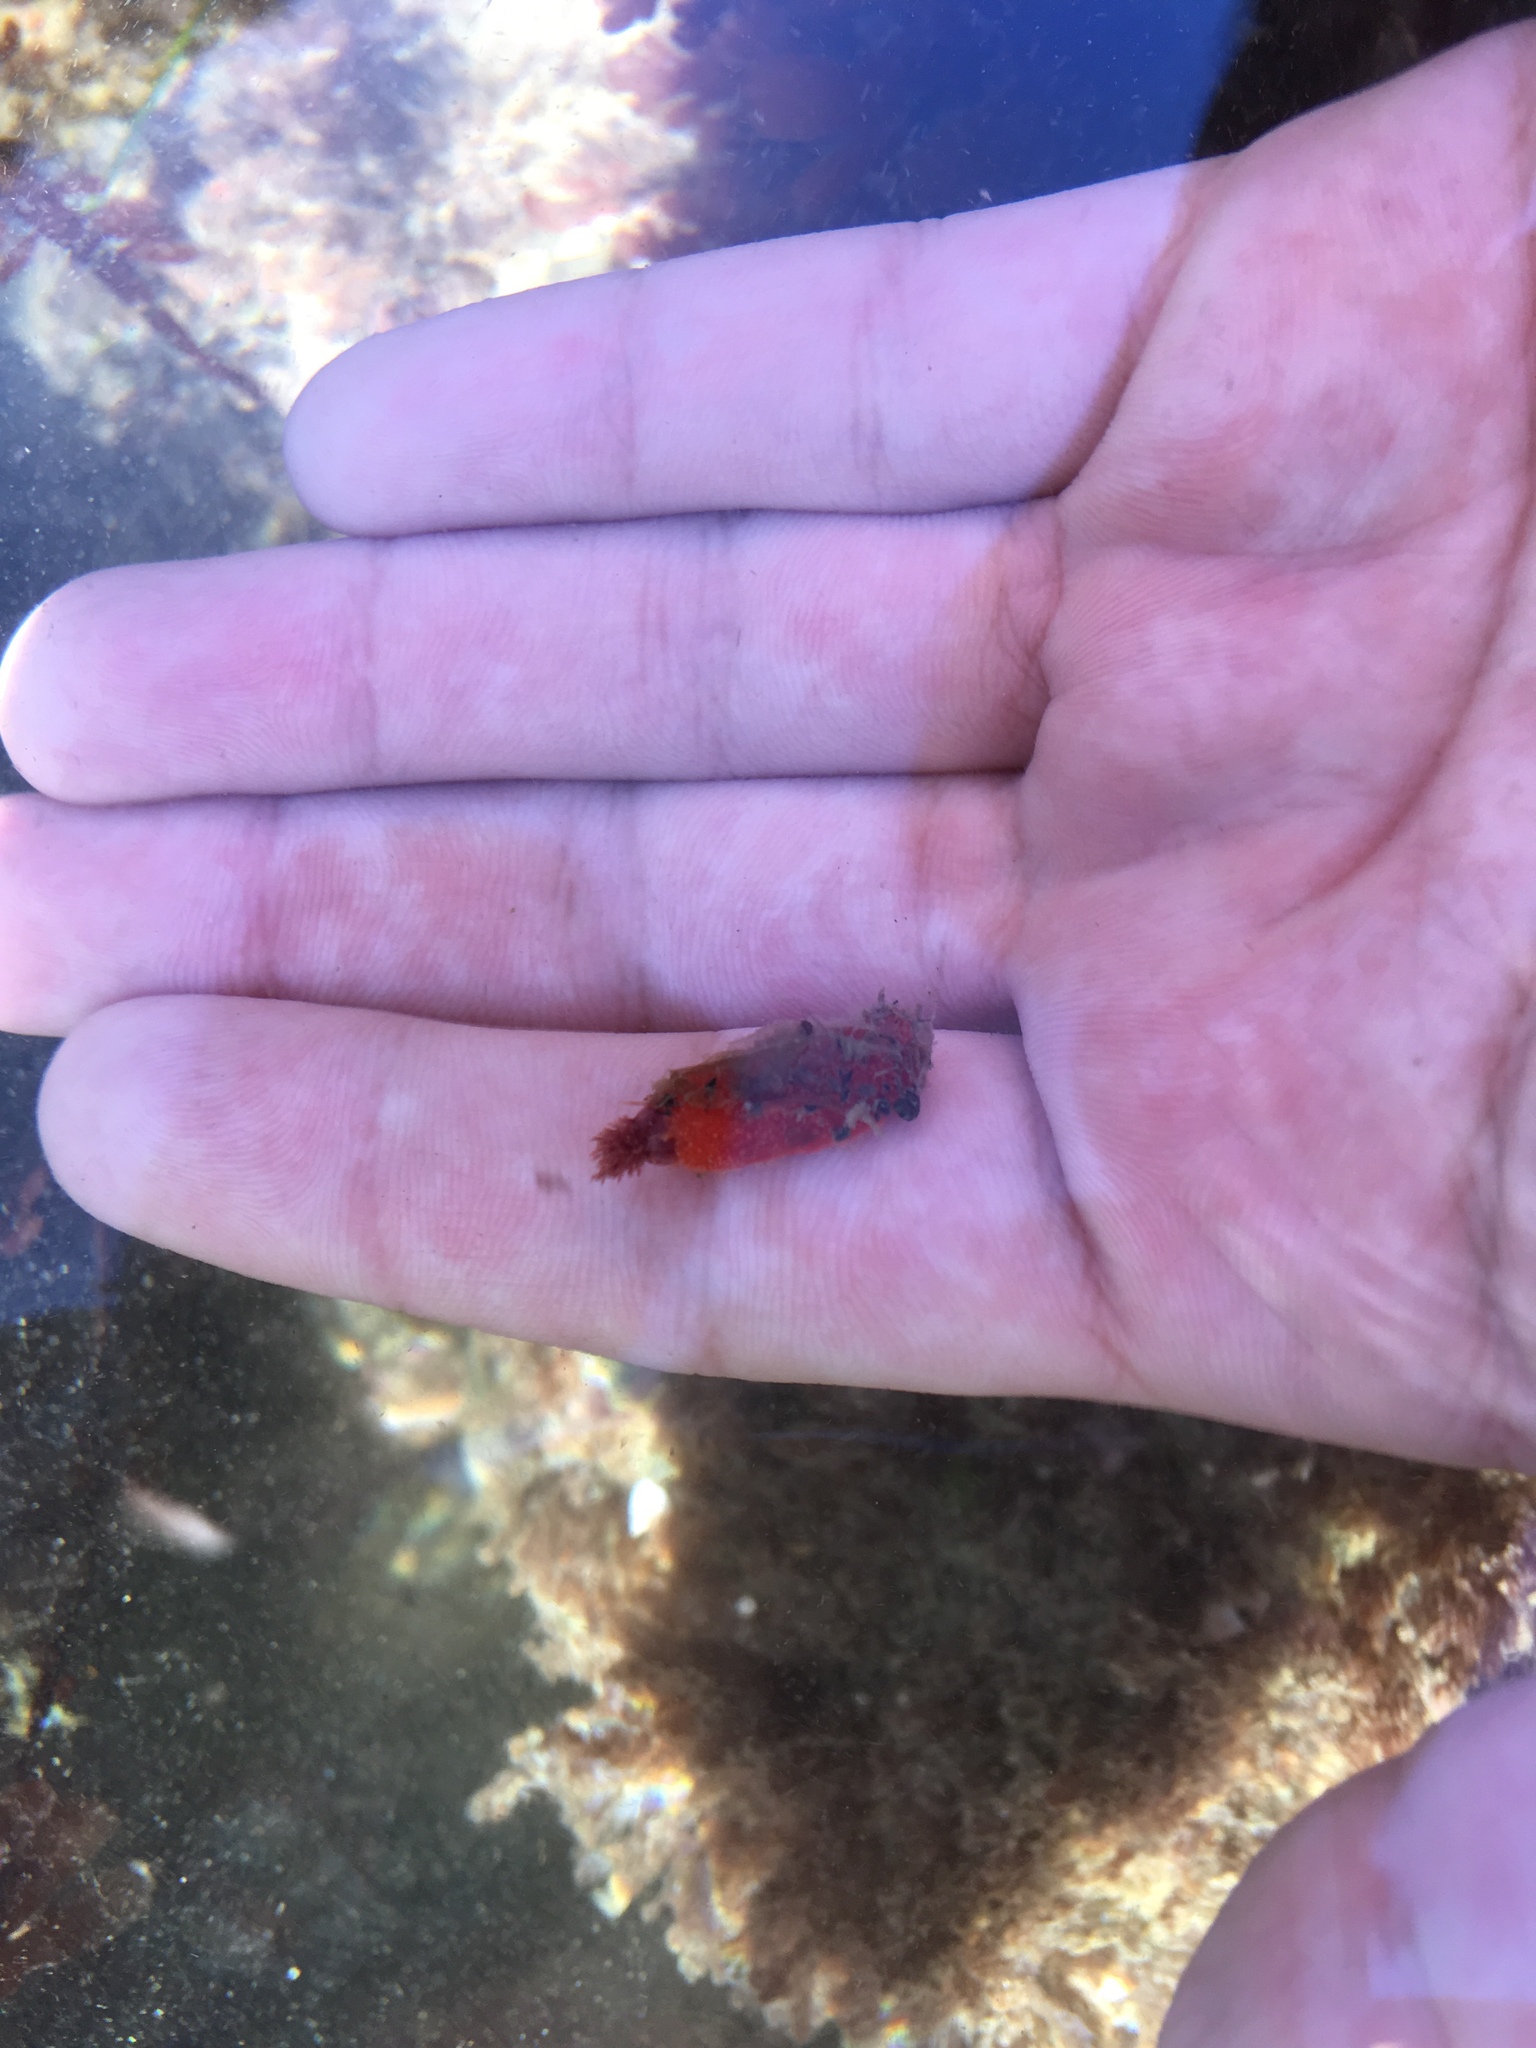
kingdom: Animalia
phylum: Echinodermata
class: Holothuroidea
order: Dendrochirotida
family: Psolidae
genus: Lissothuria
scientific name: Lissothuria nutriens
